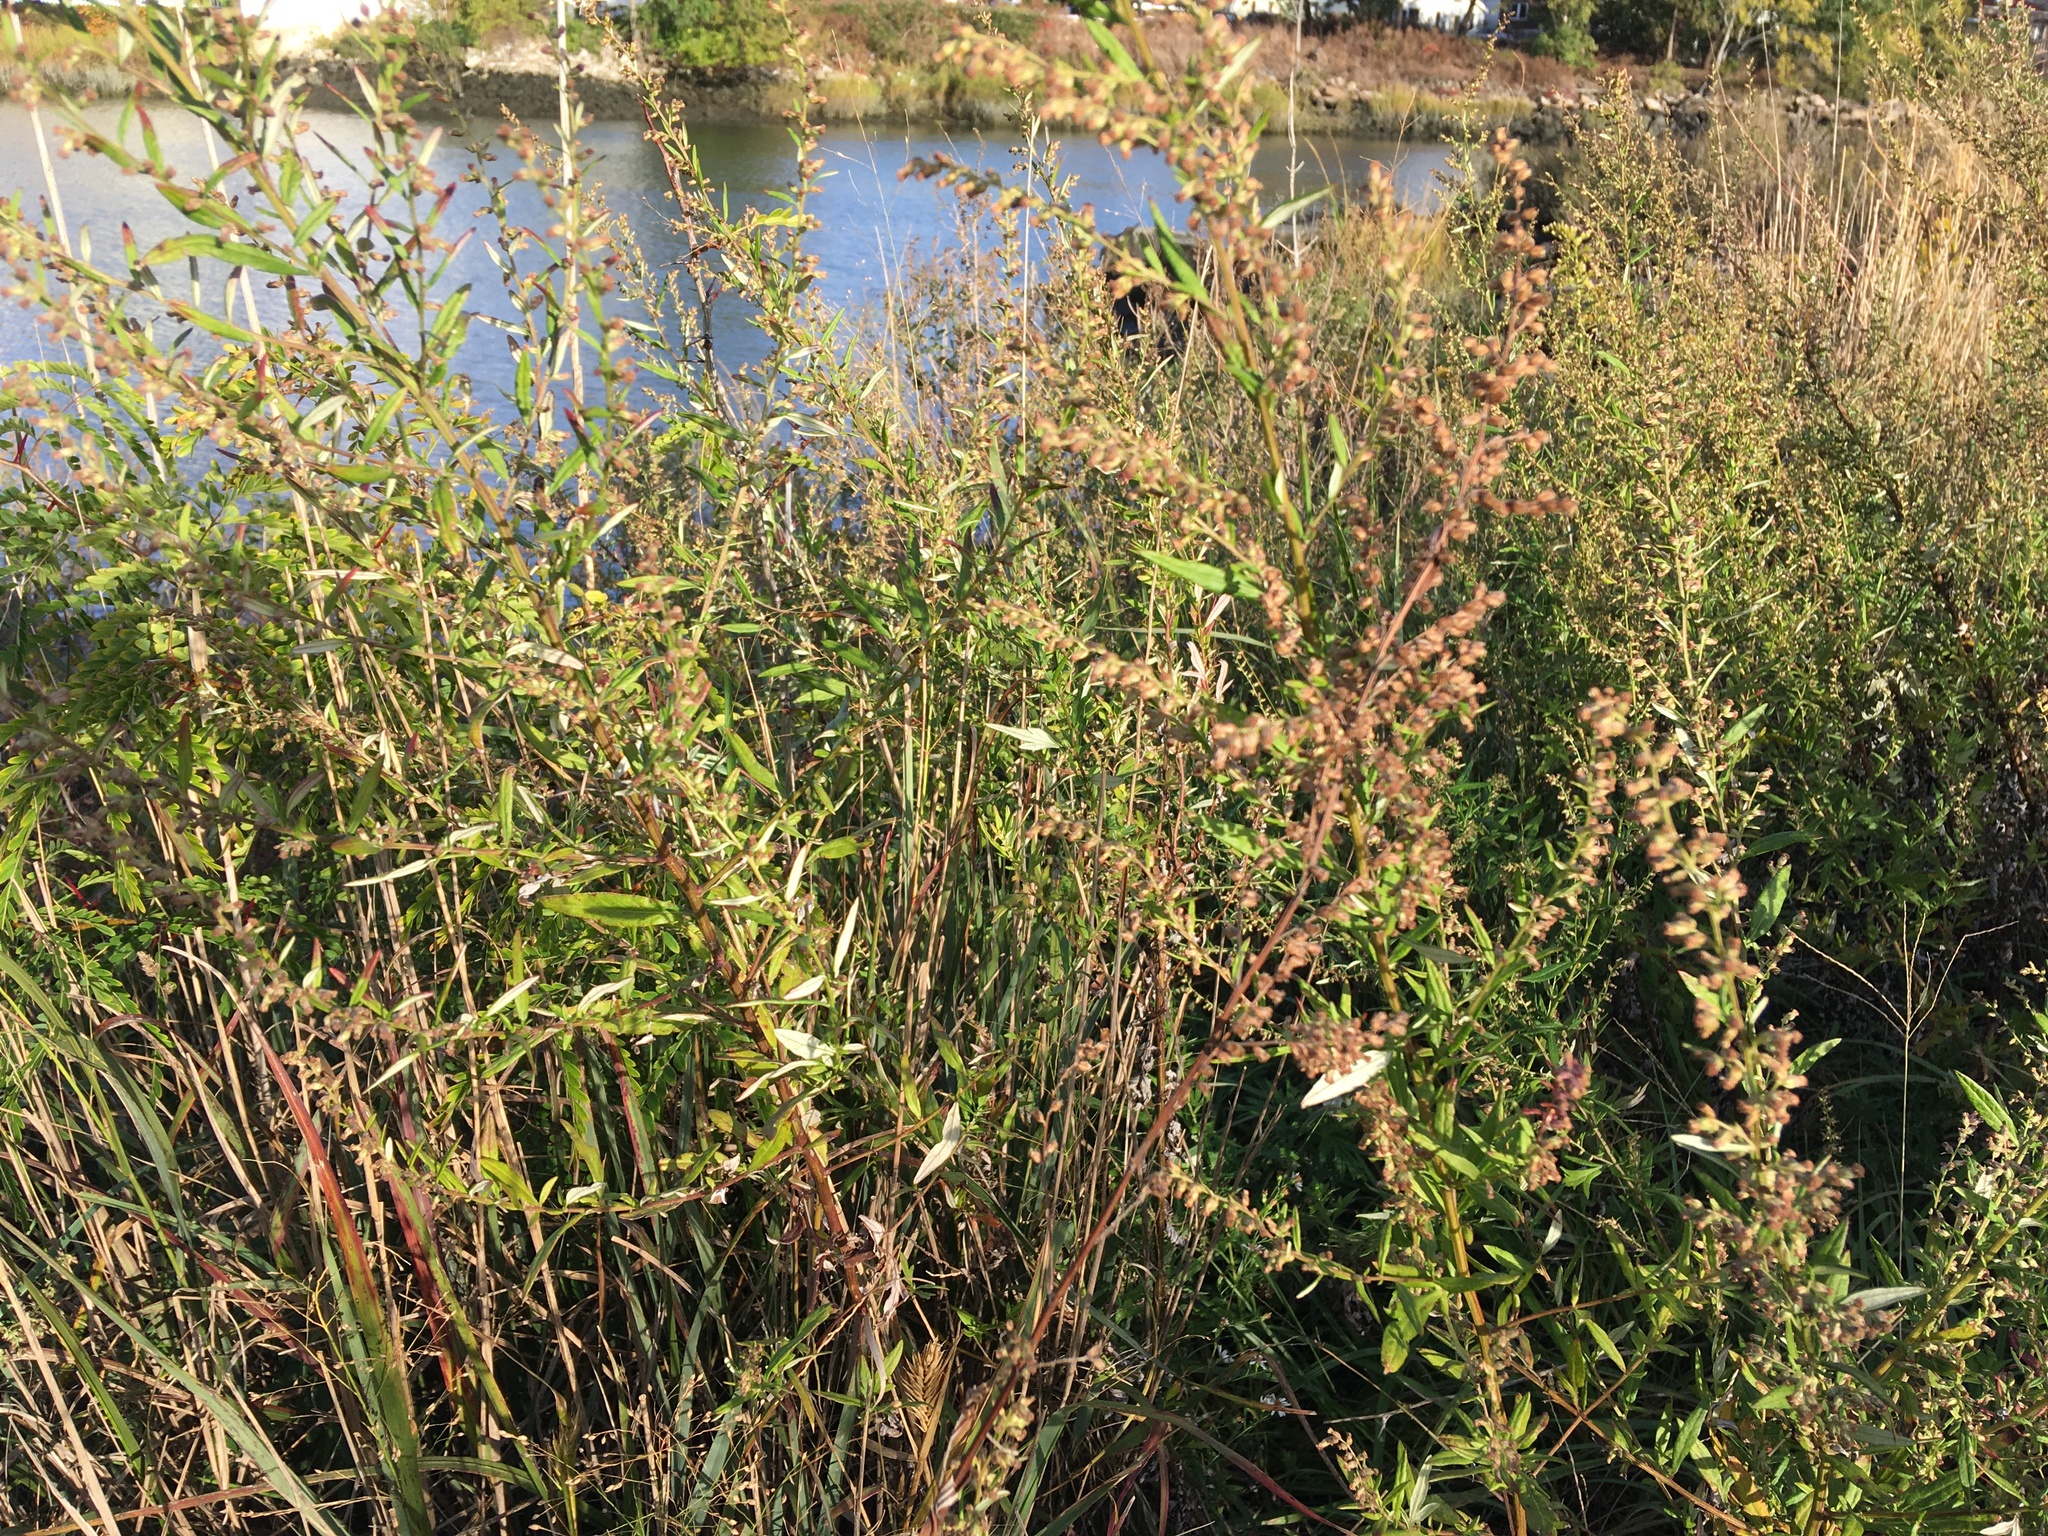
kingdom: Plantae
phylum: Tracheophyta
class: Magnoliopsida
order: Asterales
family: Asteraceae
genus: Artemisia
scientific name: Artemisia vulgaris
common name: Mugwort
